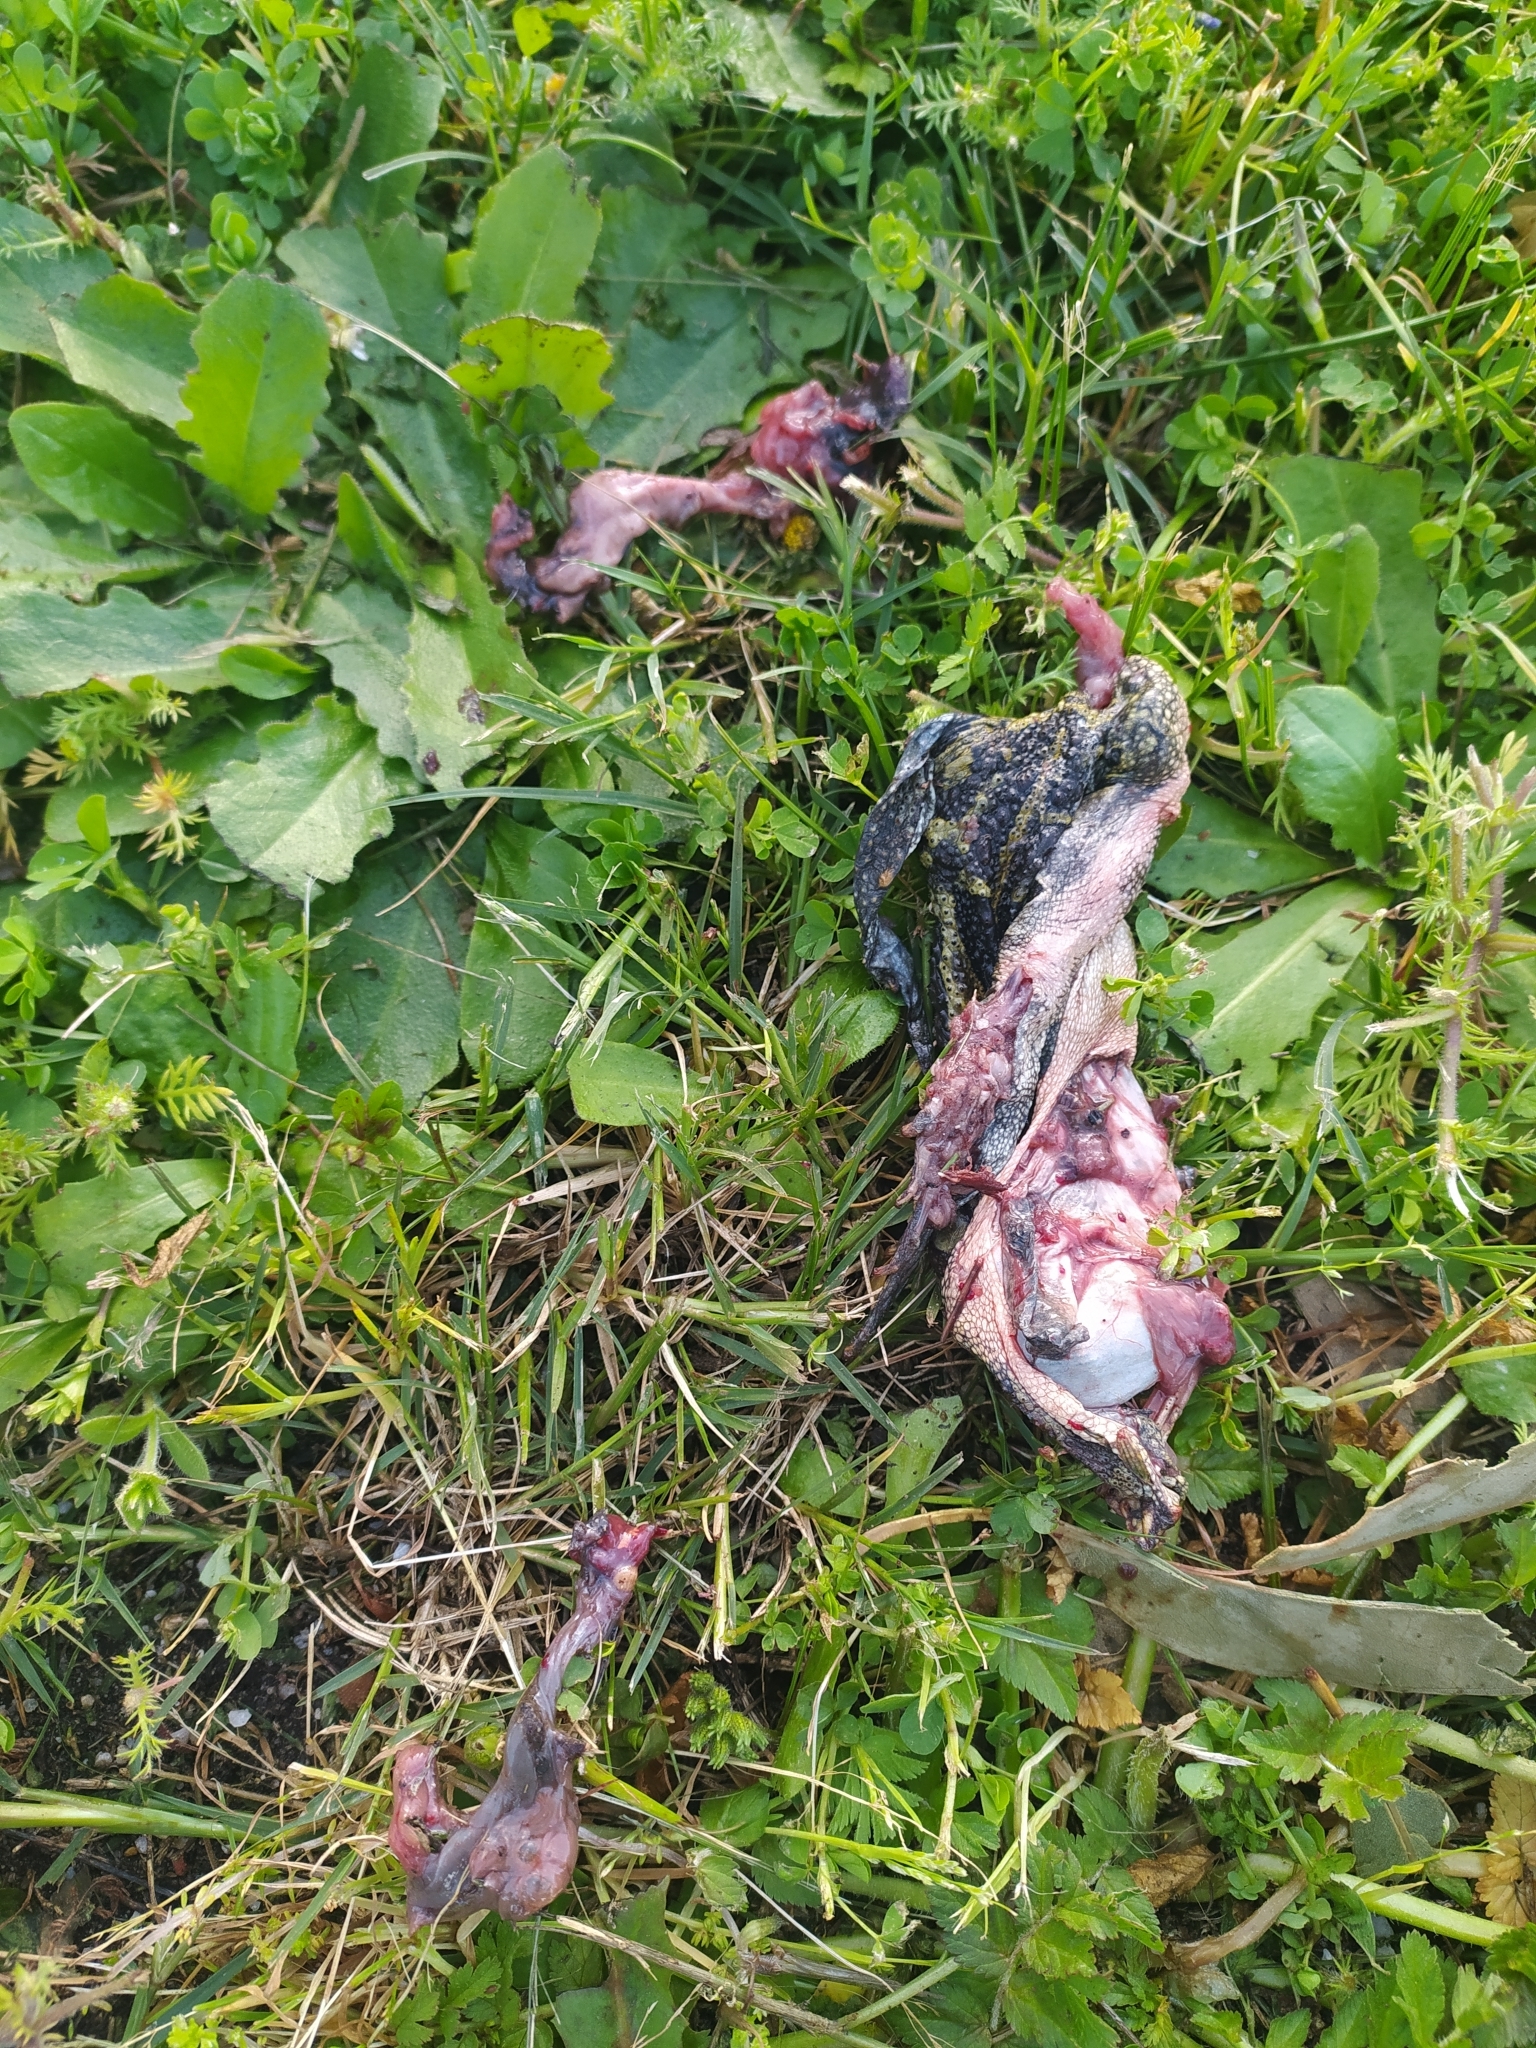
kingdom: Animalia
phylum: Chordata
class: Amphibia
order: Anura
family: Bufonidae
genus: Sclerophrys
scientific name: Sclerophrys pantherina
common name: Panther toad
